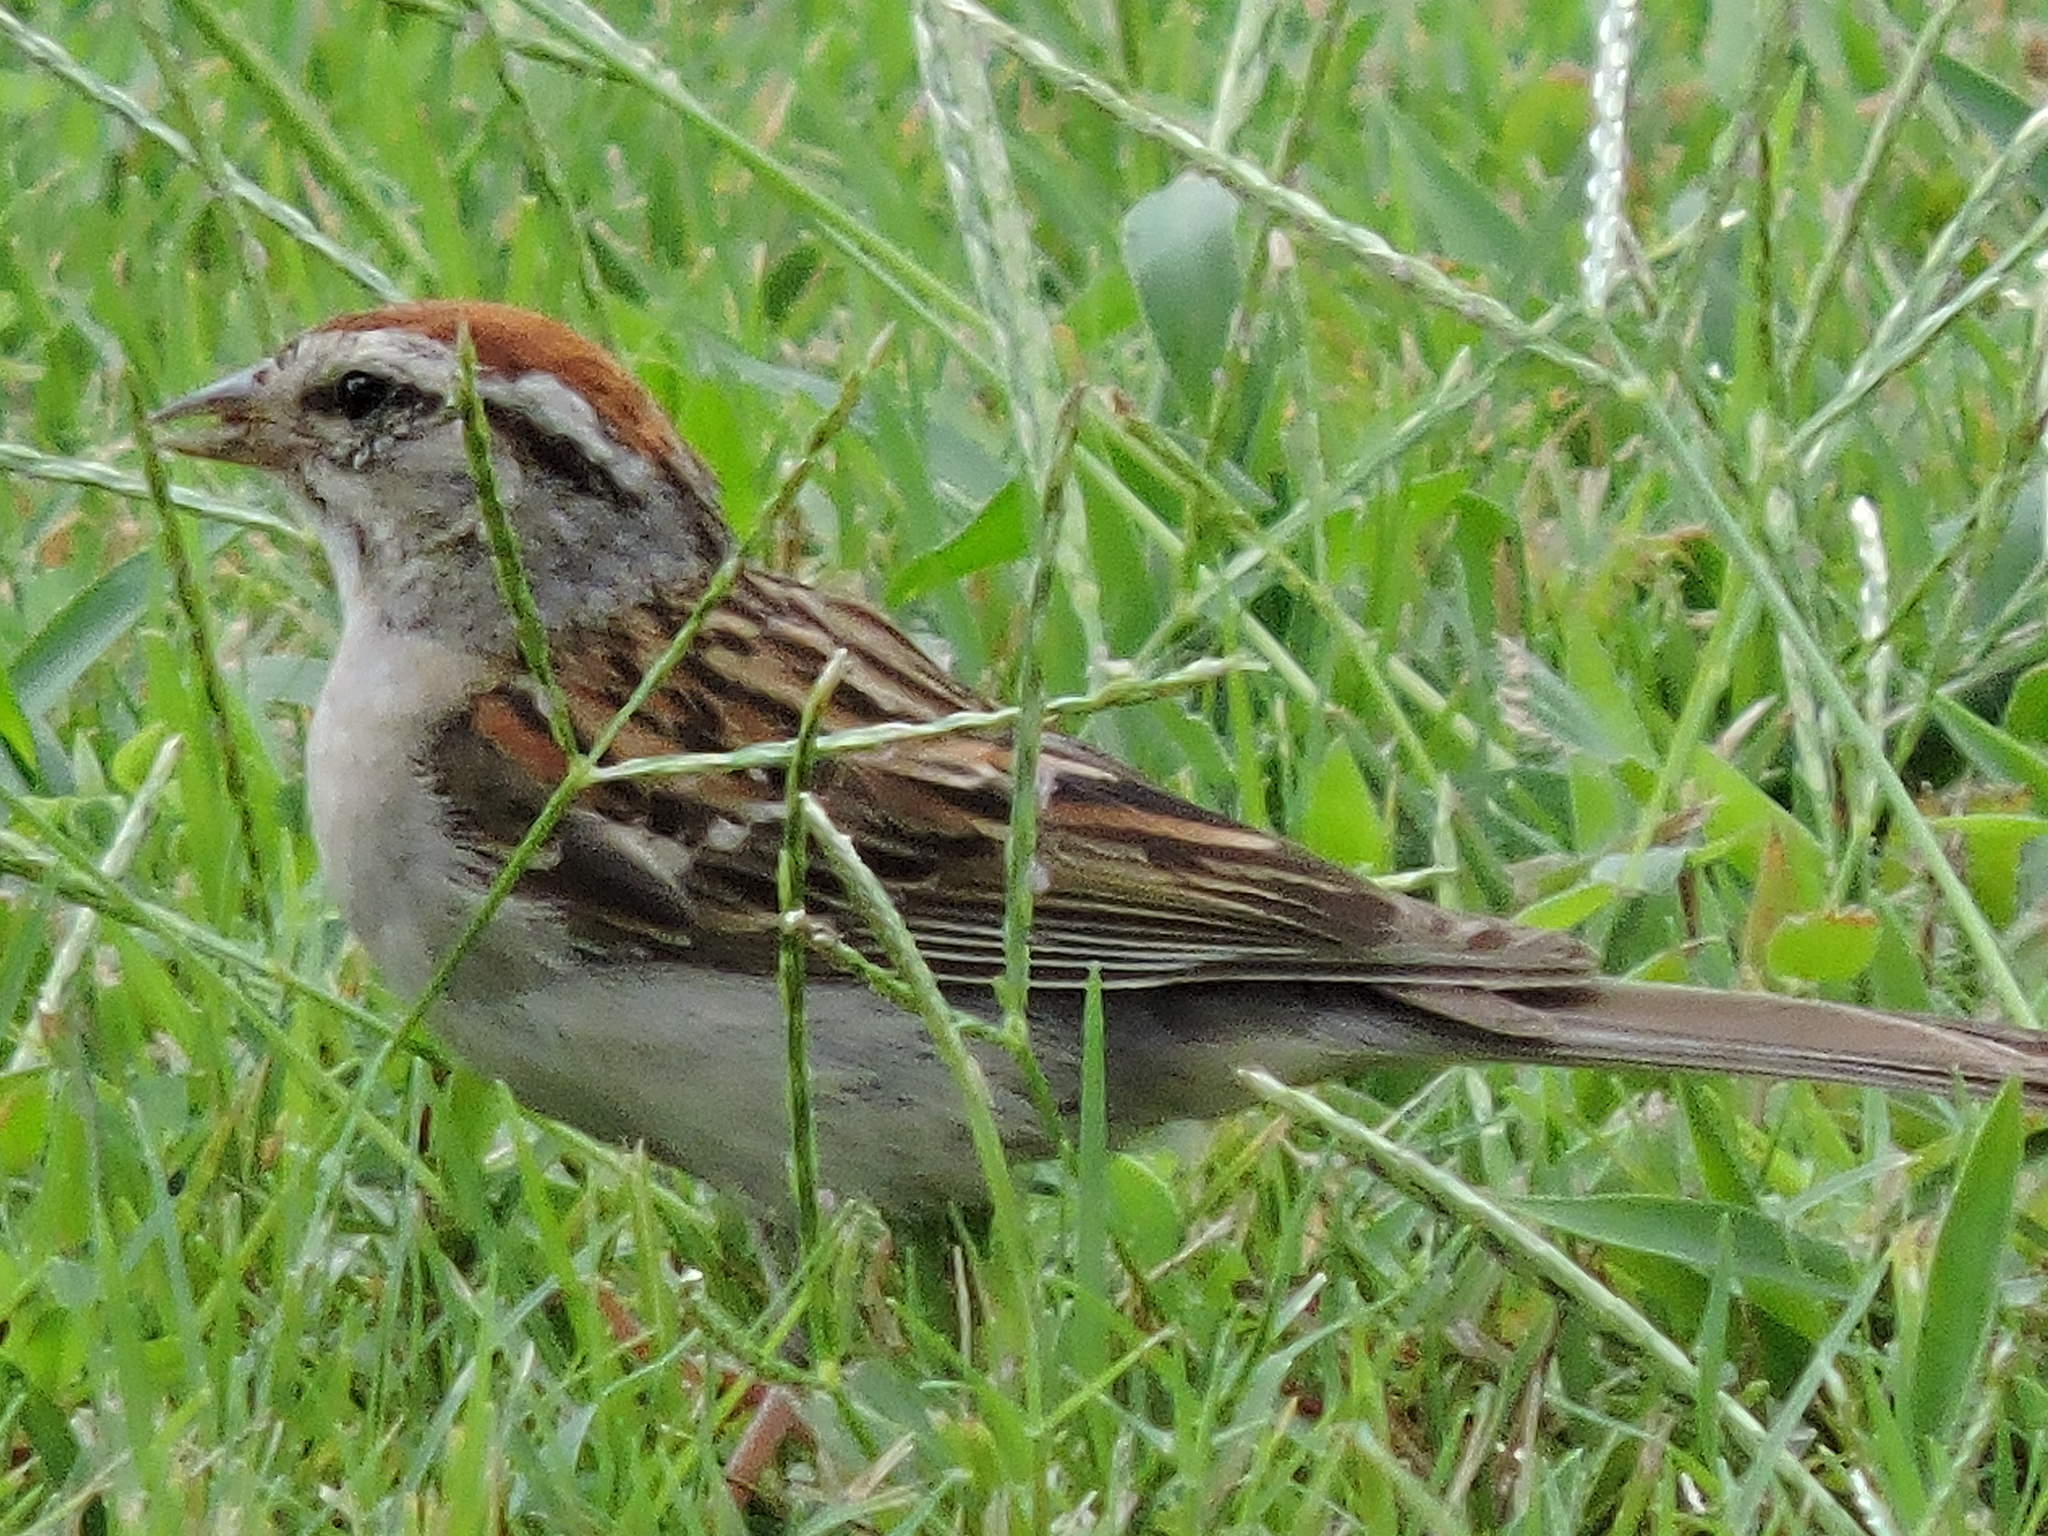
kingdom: Animalia
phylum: Chordata
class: Aves
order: Passeriformes
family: Passerellidae
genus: Spizella
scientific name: Spizella passerina
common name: Chipping sparrow
